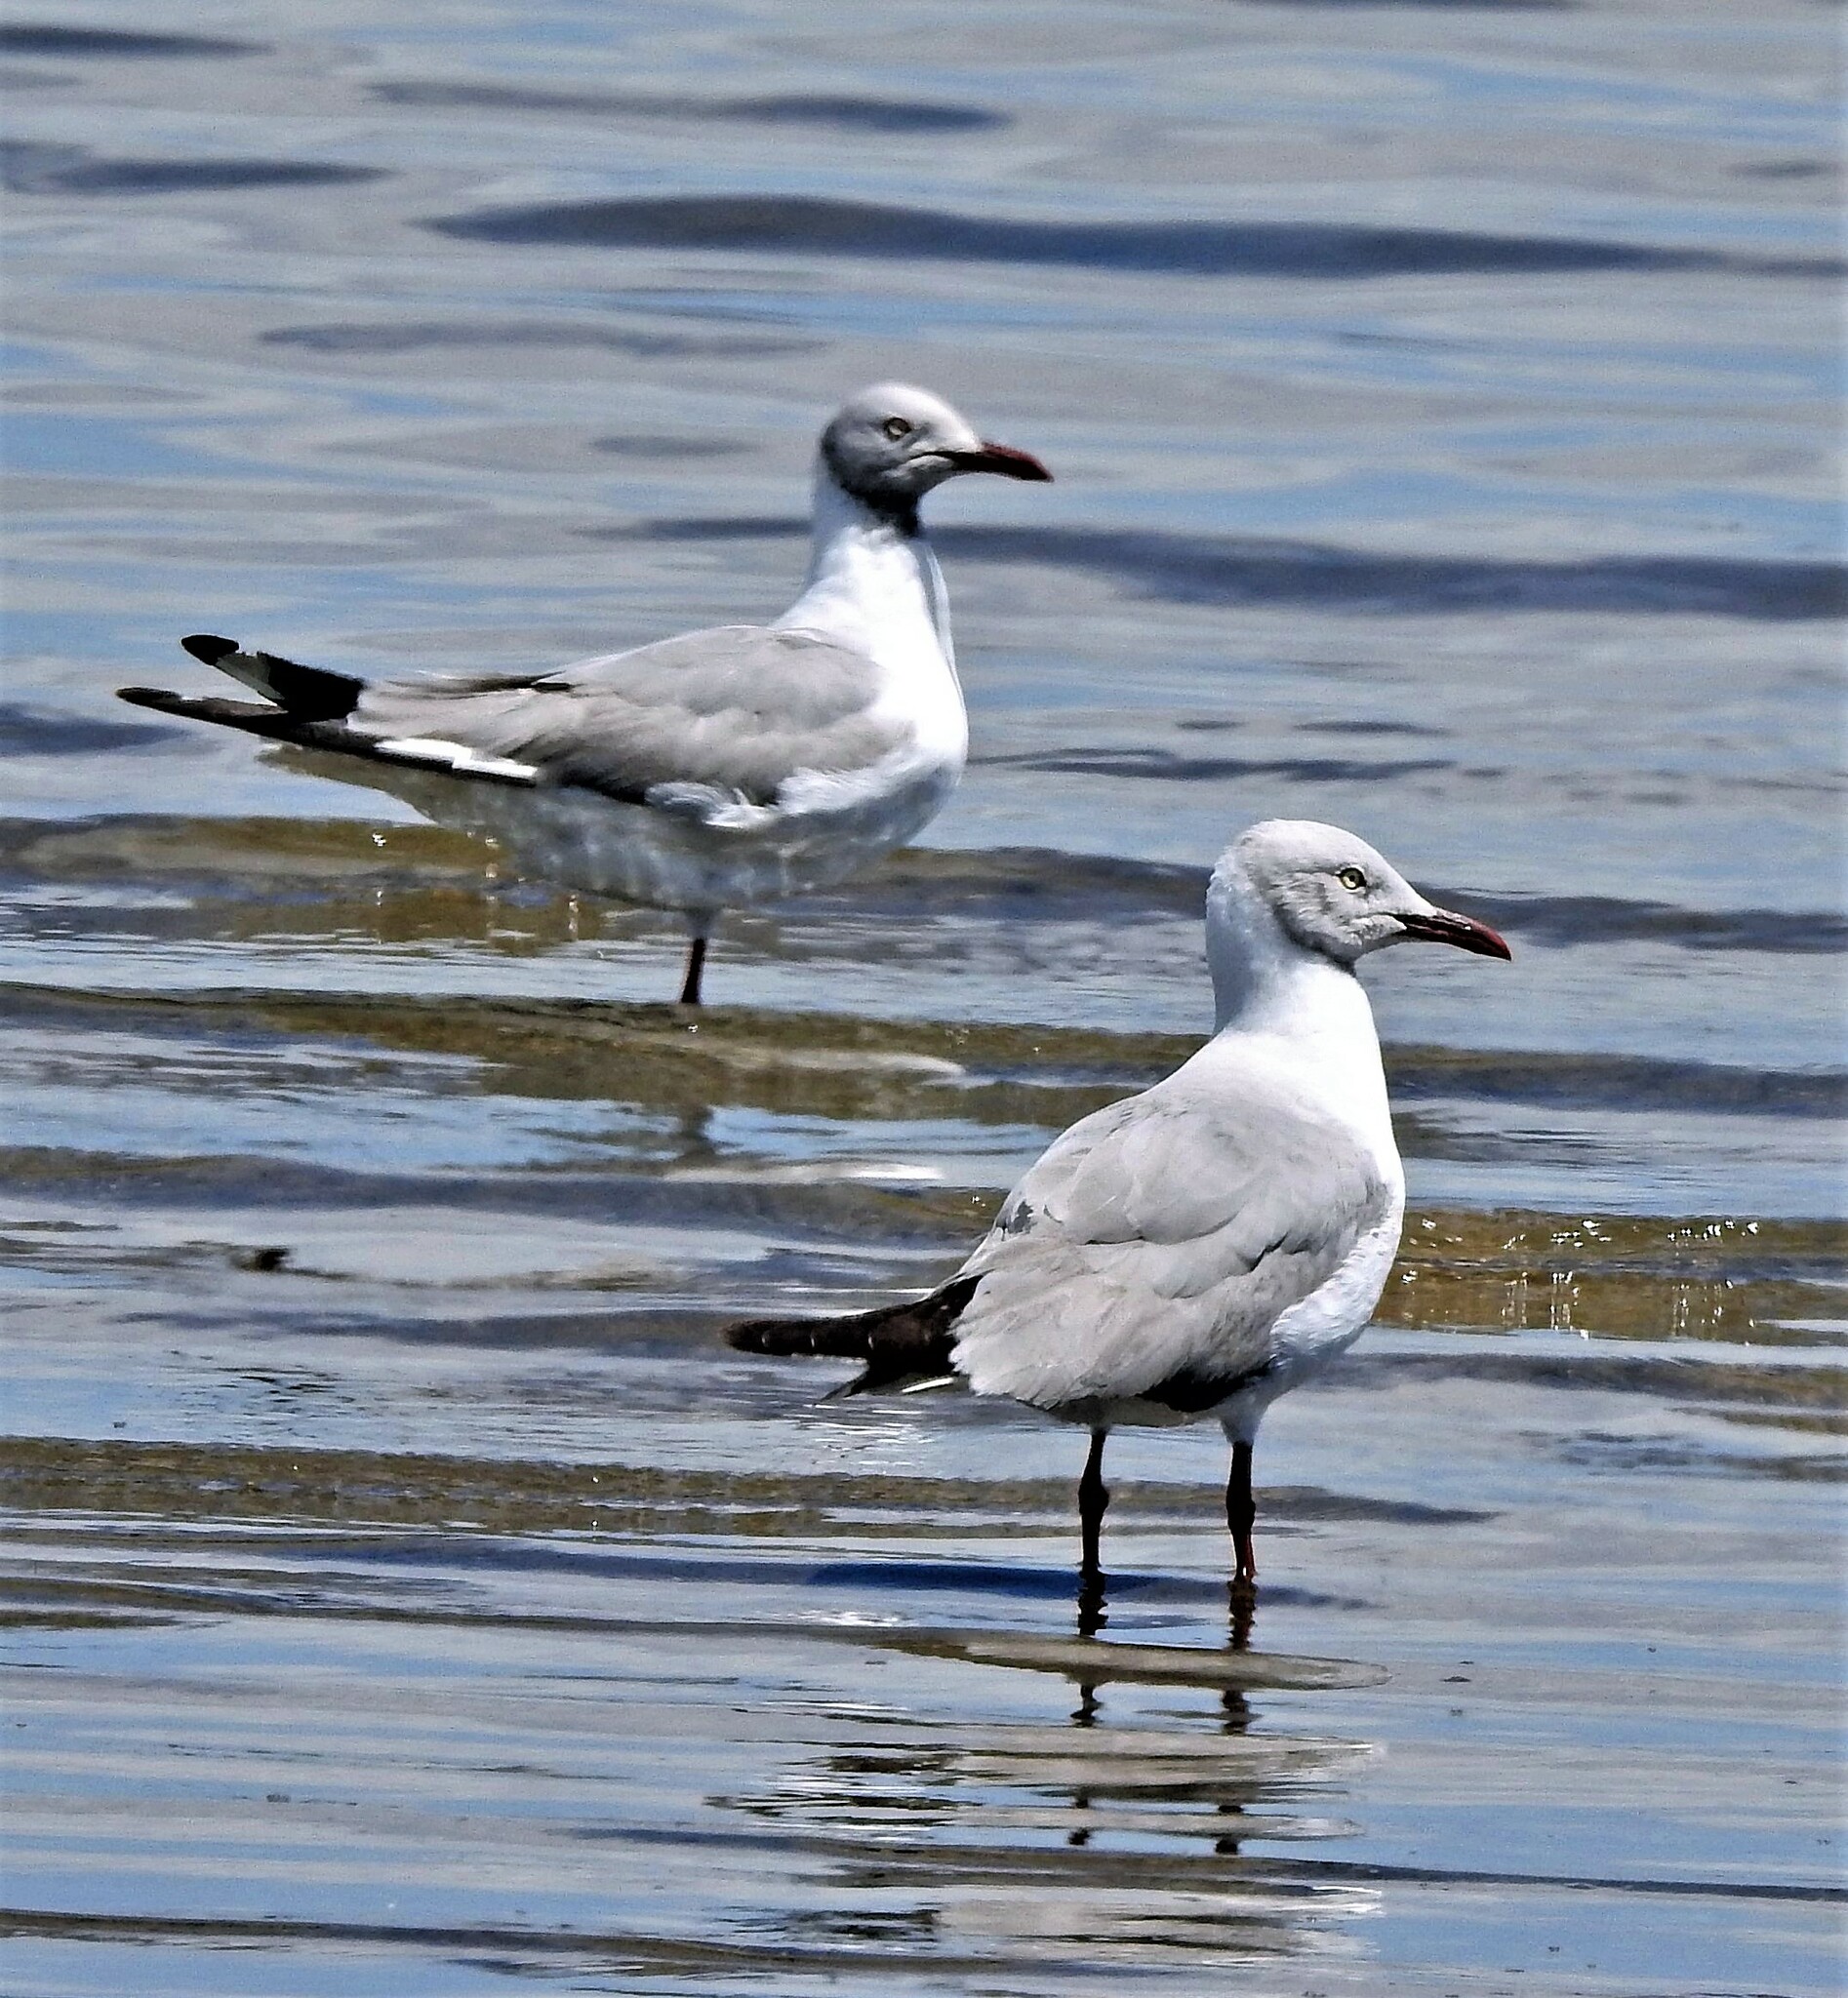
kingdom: Animalia
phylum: Chordata
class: Aves
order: Charadriiformes
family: Laridae
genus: Chroicocephalus
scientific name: Chroicocephalus cirrocephalus
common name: Grey-headed gull
